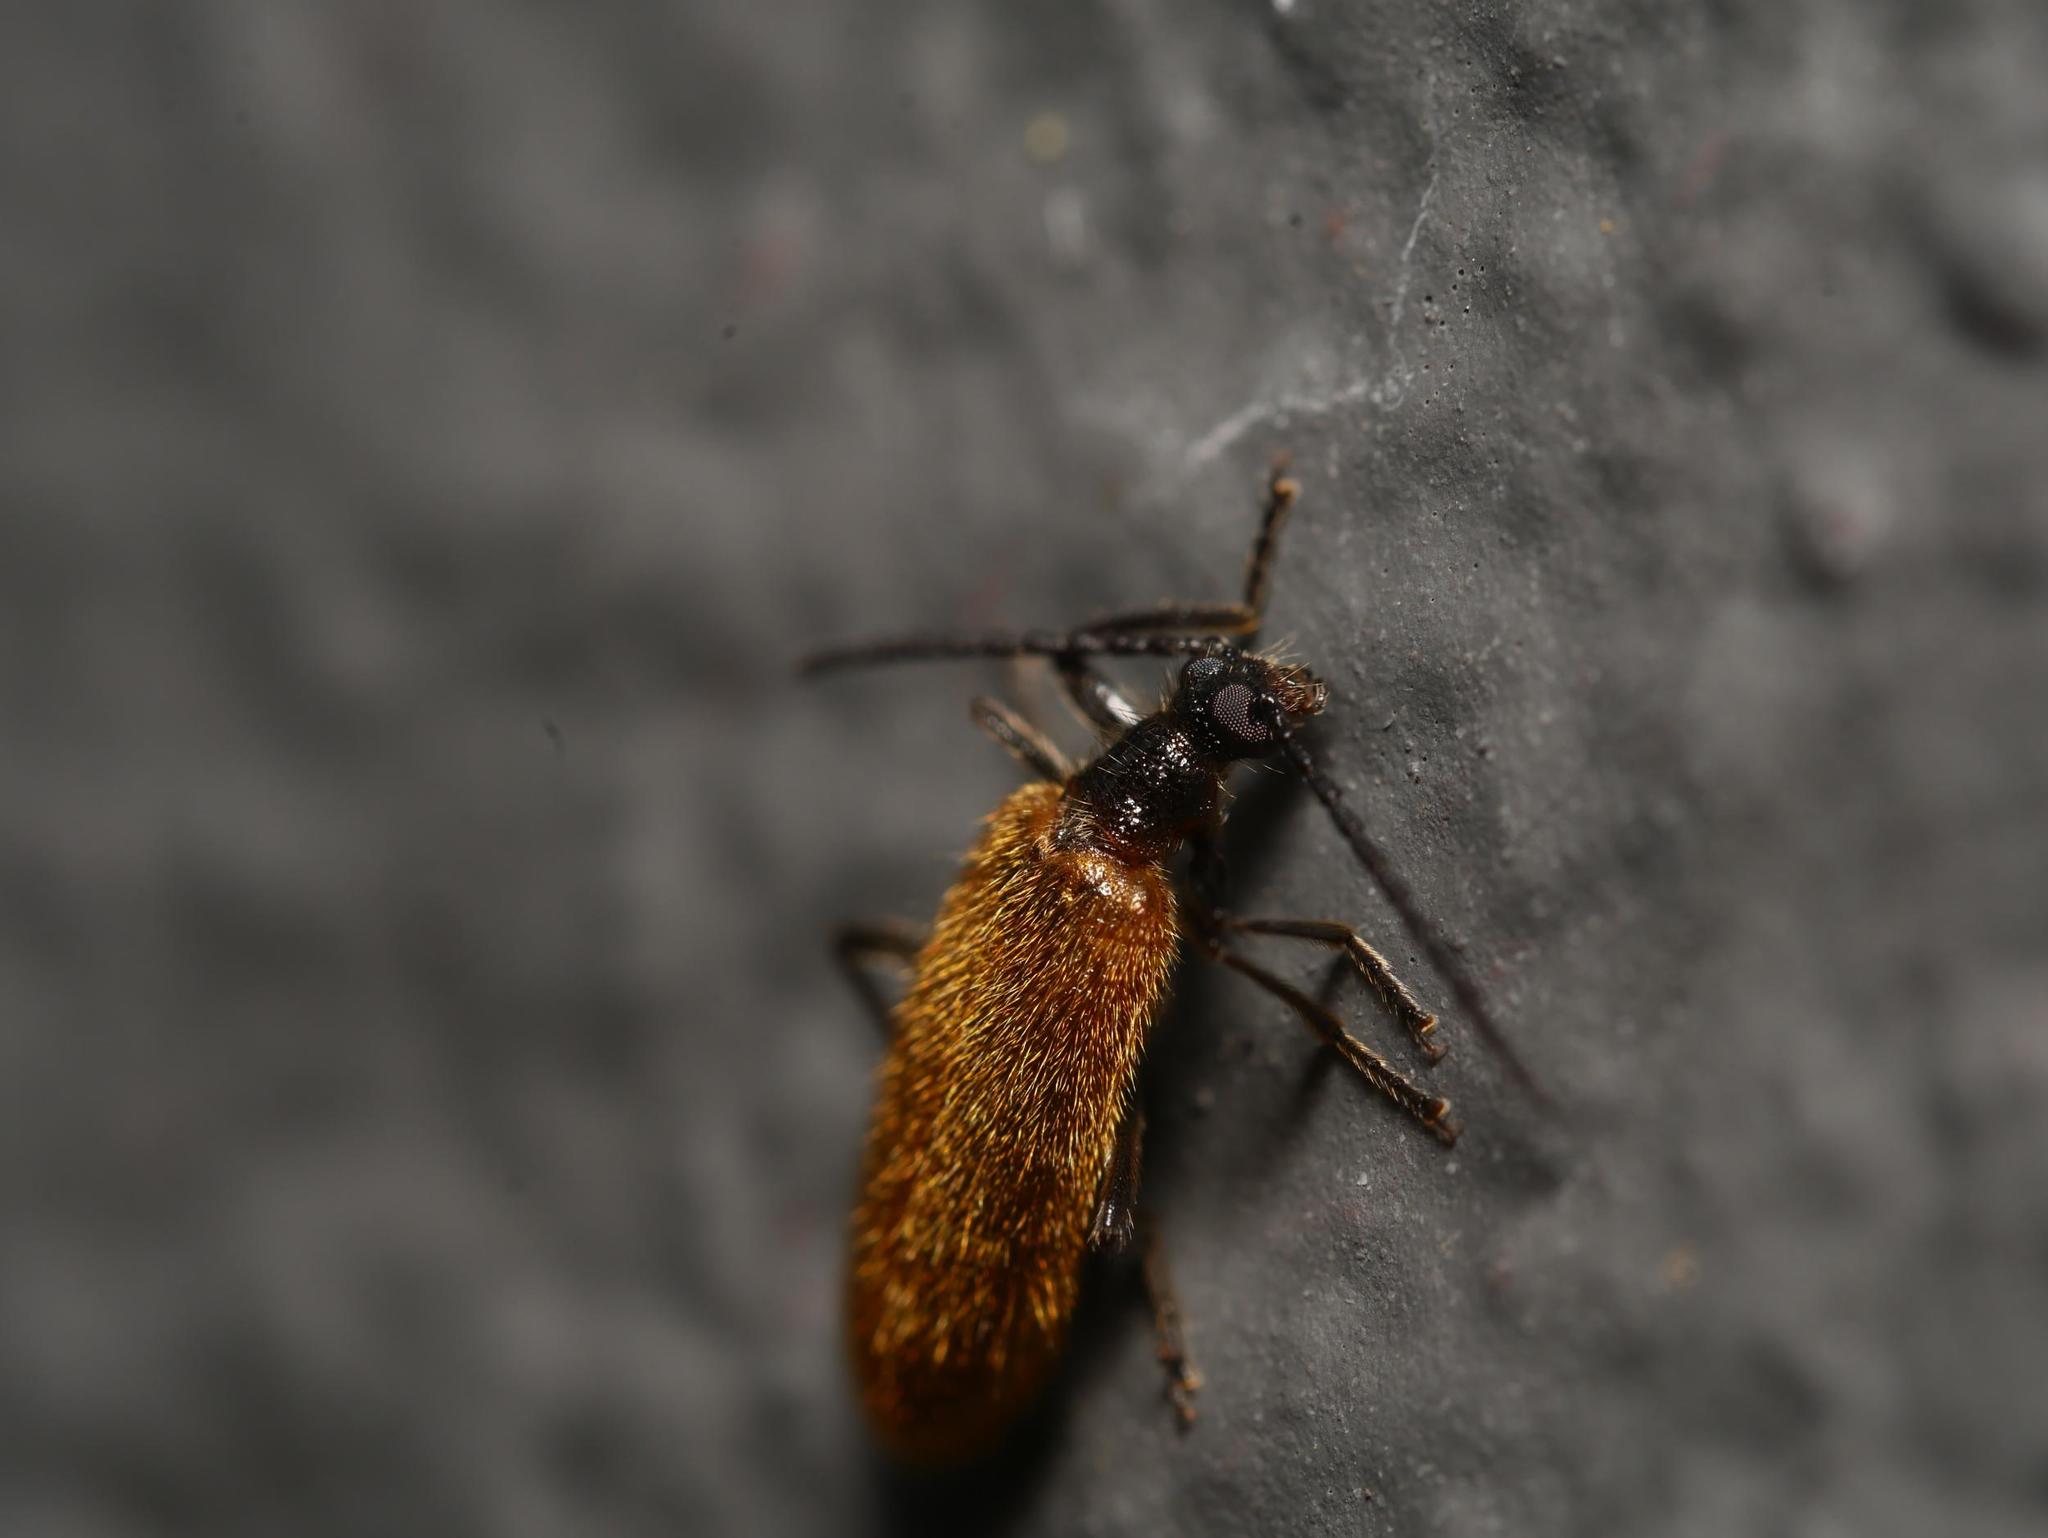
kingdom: Animalia
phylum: Arthropoda
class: Insecta
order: Coleoptera
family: Tenebrionidae
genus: Lagria
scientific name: Lagria hirta
